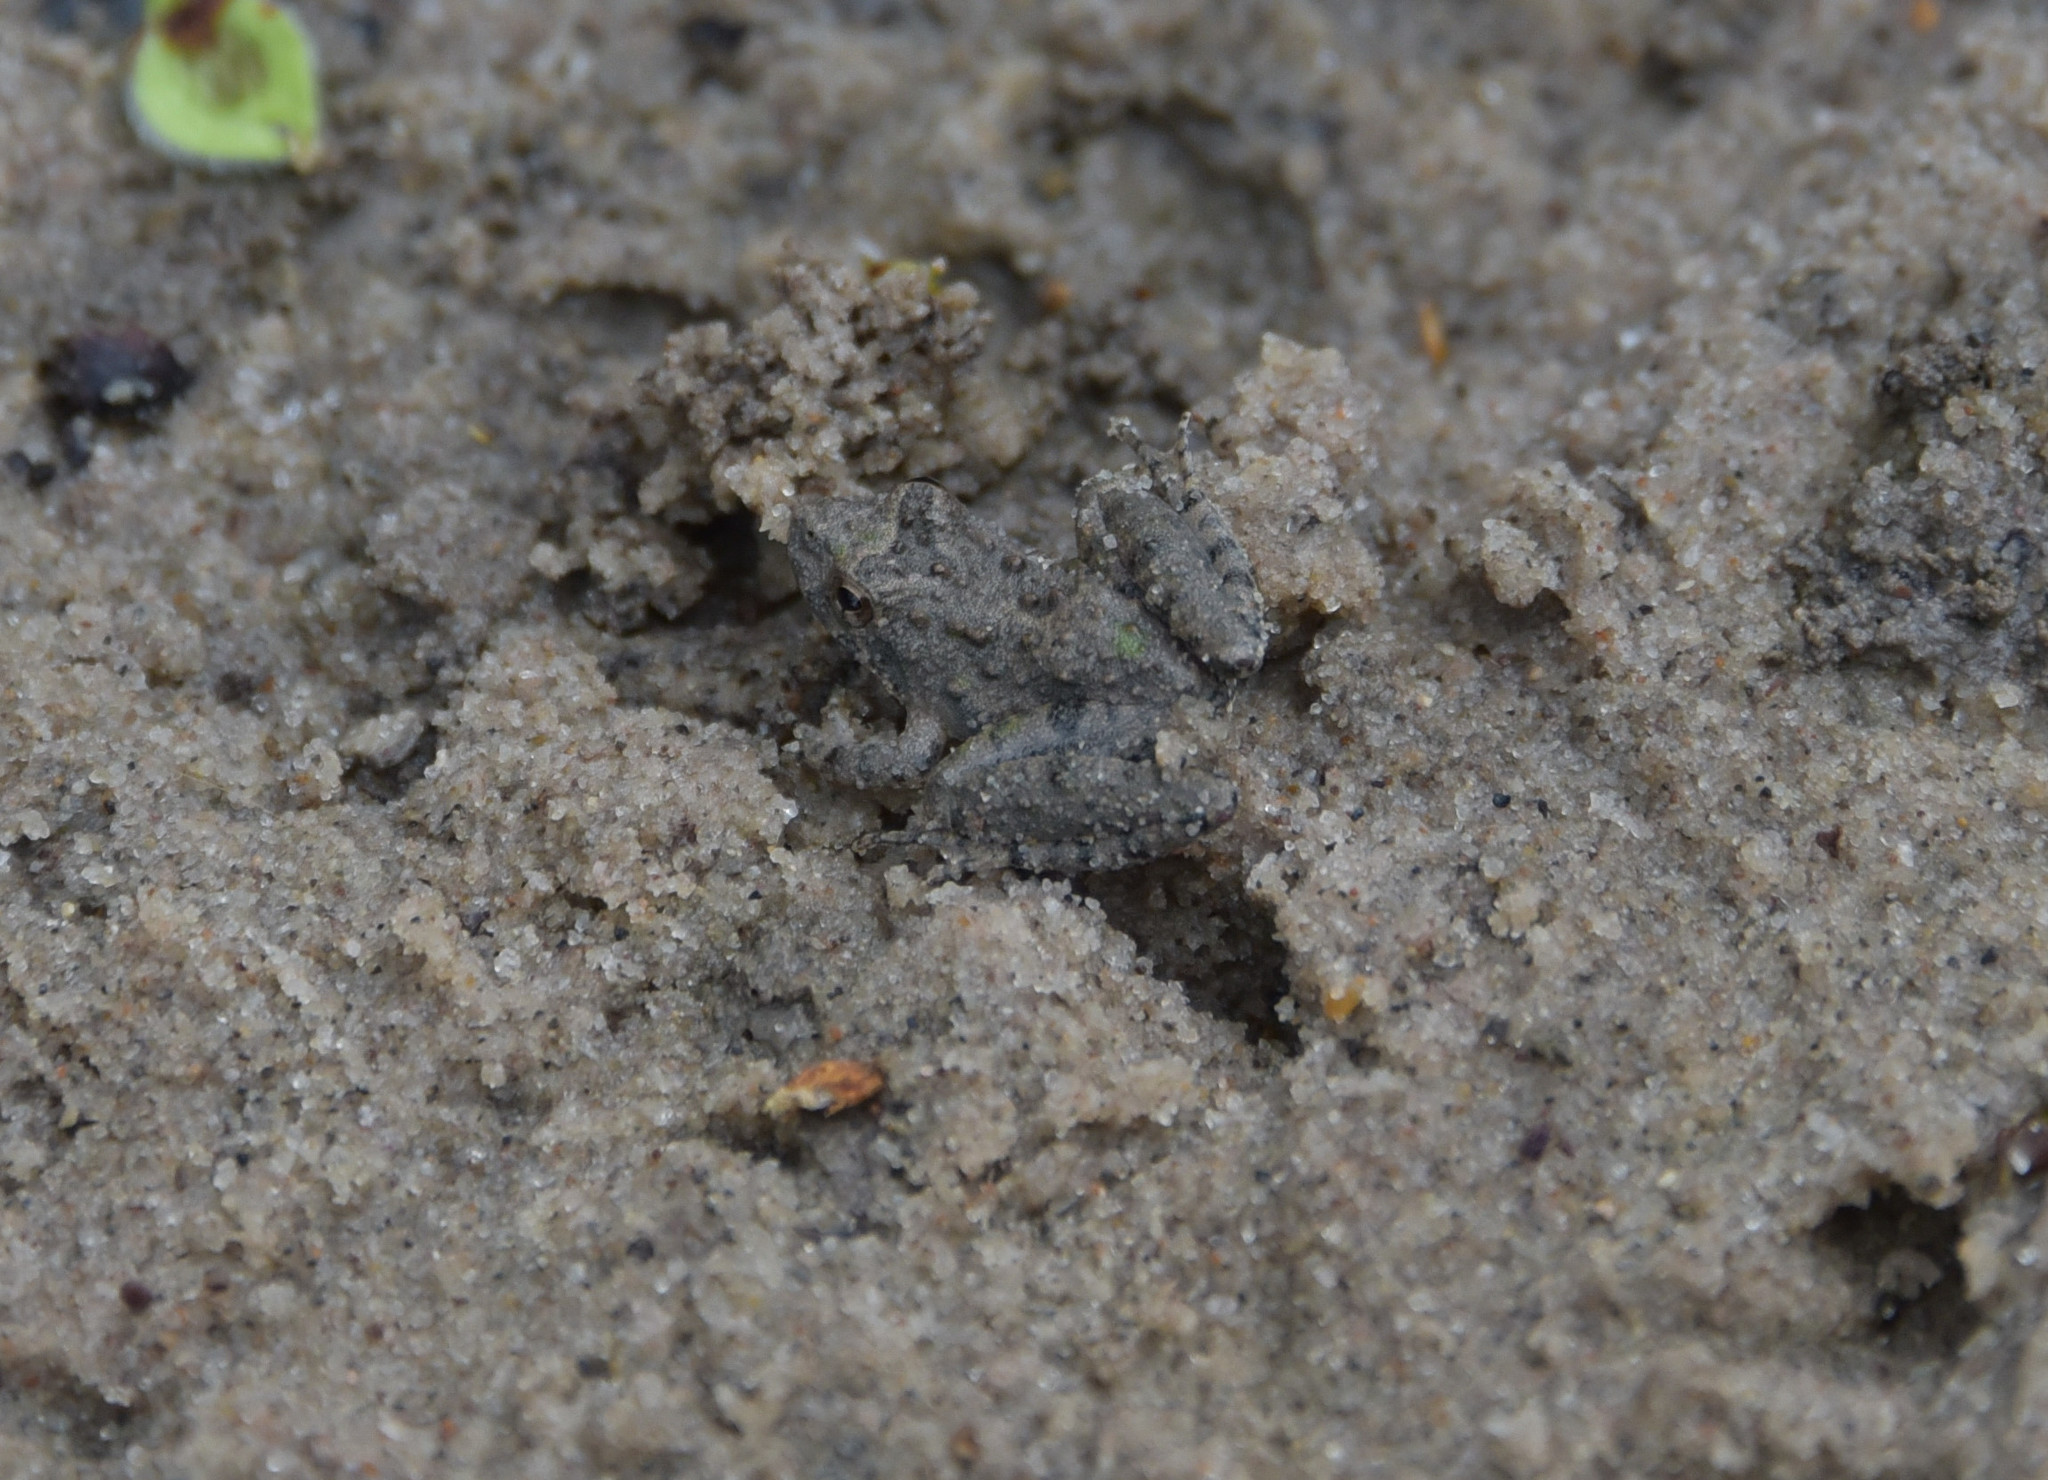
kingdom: Animalia
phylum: Chordata
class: Amphibia
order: Anura
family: Hylidae
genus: Acris
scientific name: Acris blanchardi
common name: Blanchard's cricket frog
